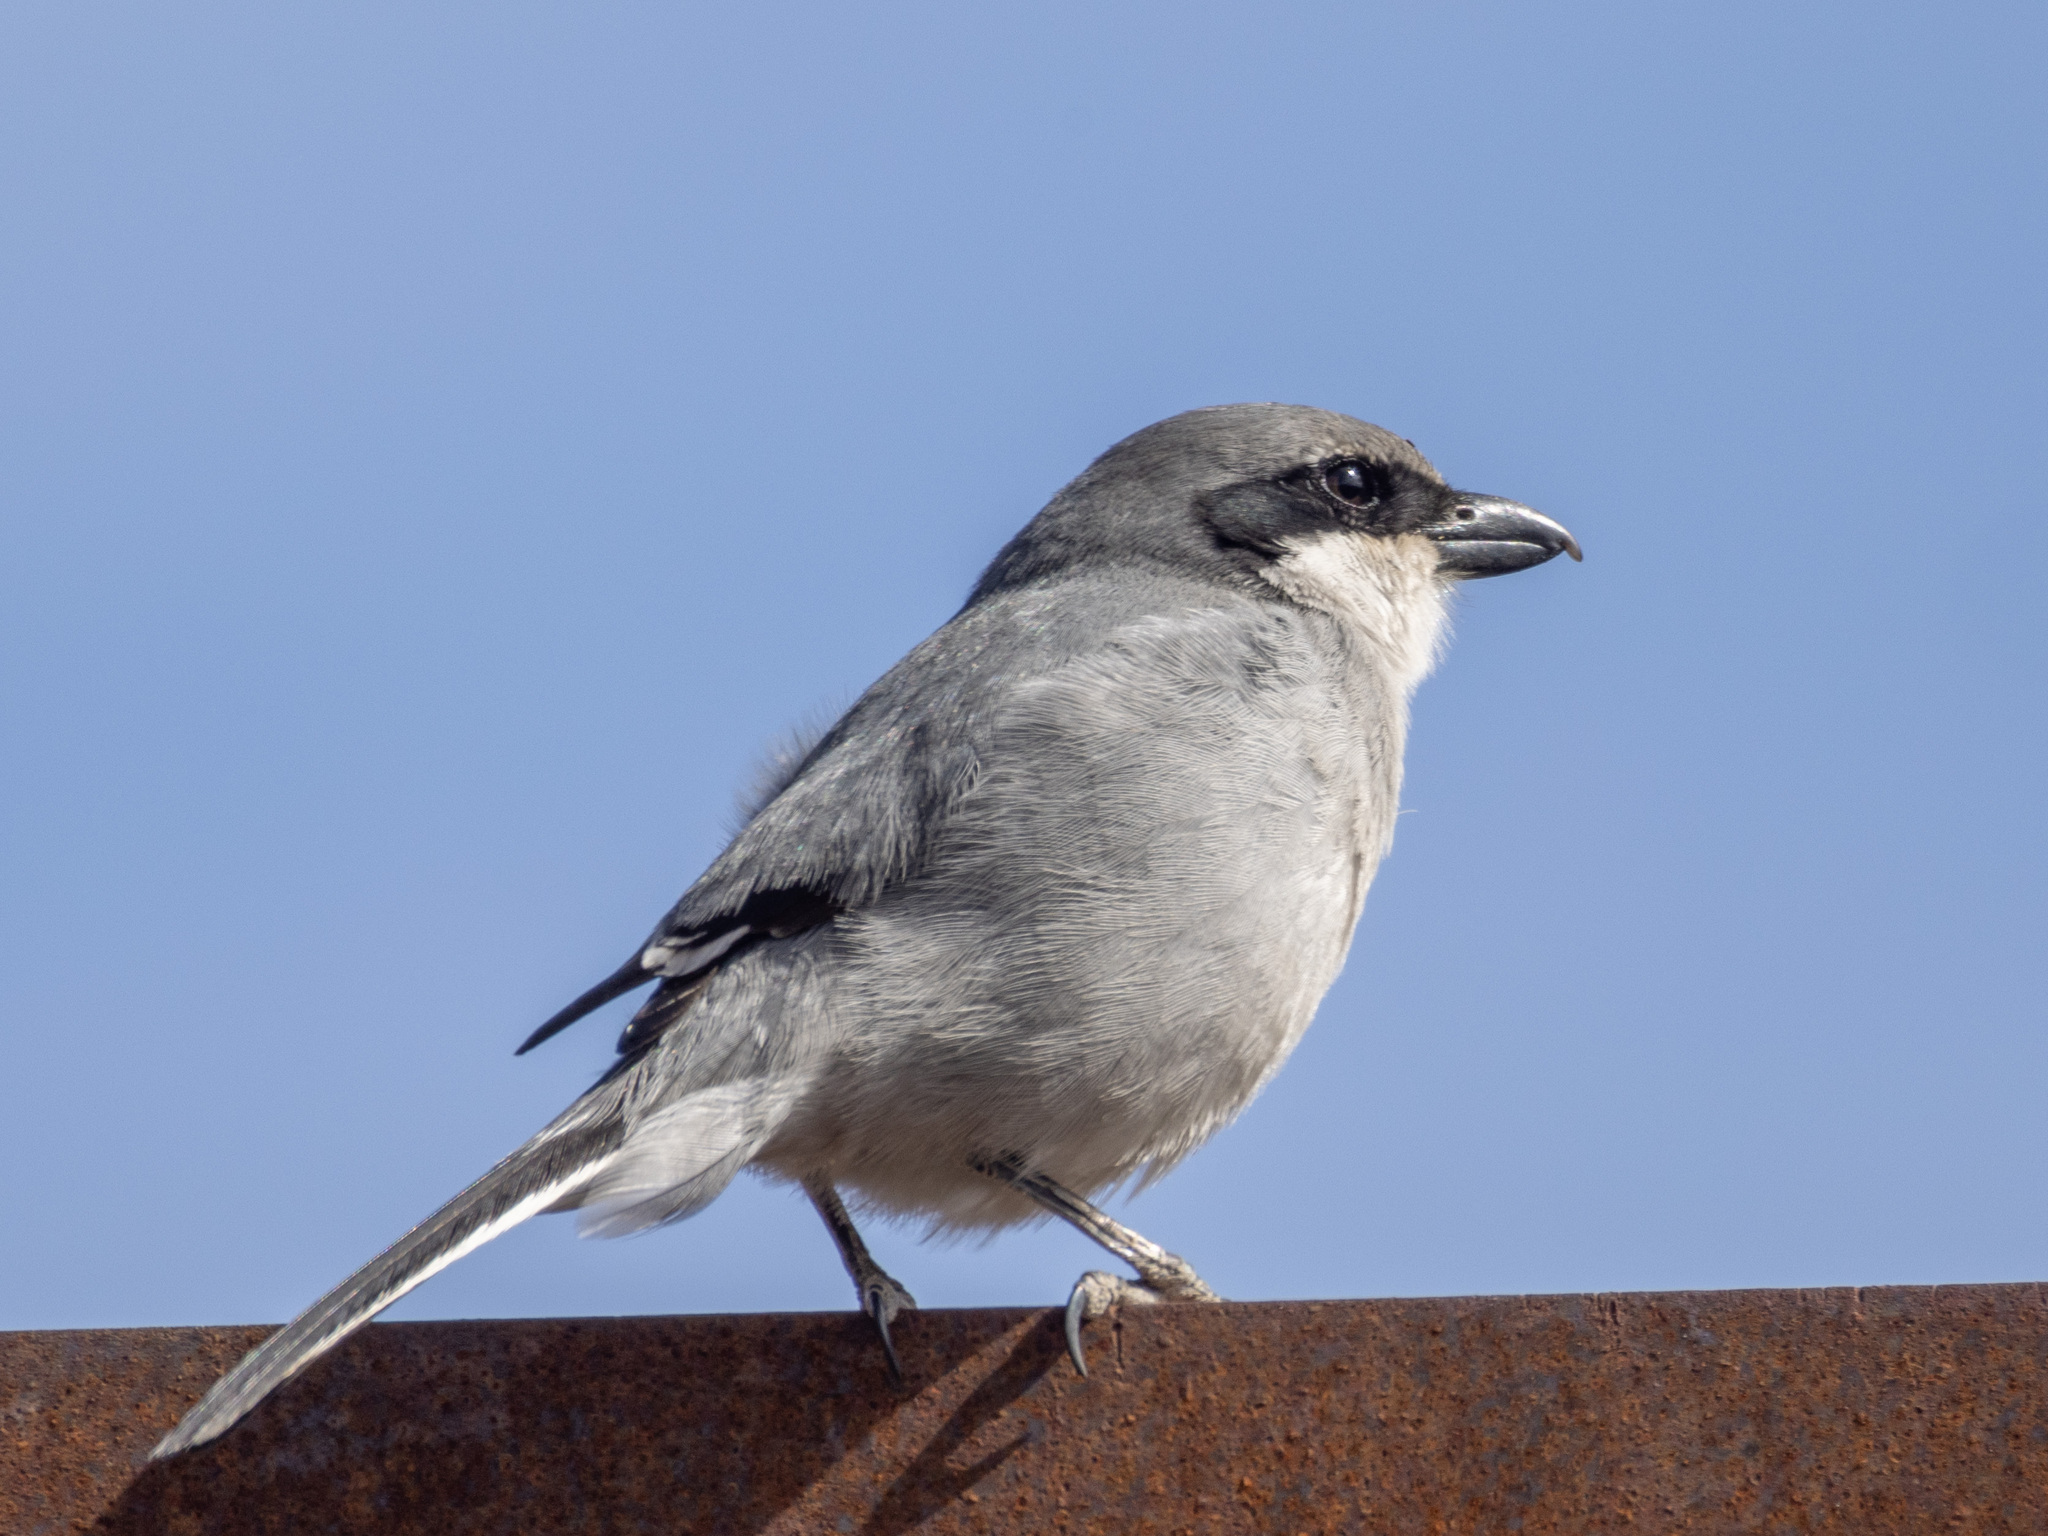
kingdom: Animalia
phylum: Chordata
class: Aves
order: Passeriformes
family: Laniidae
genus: Lanius
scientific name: Lanius excubitor
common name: Great grey shrike
